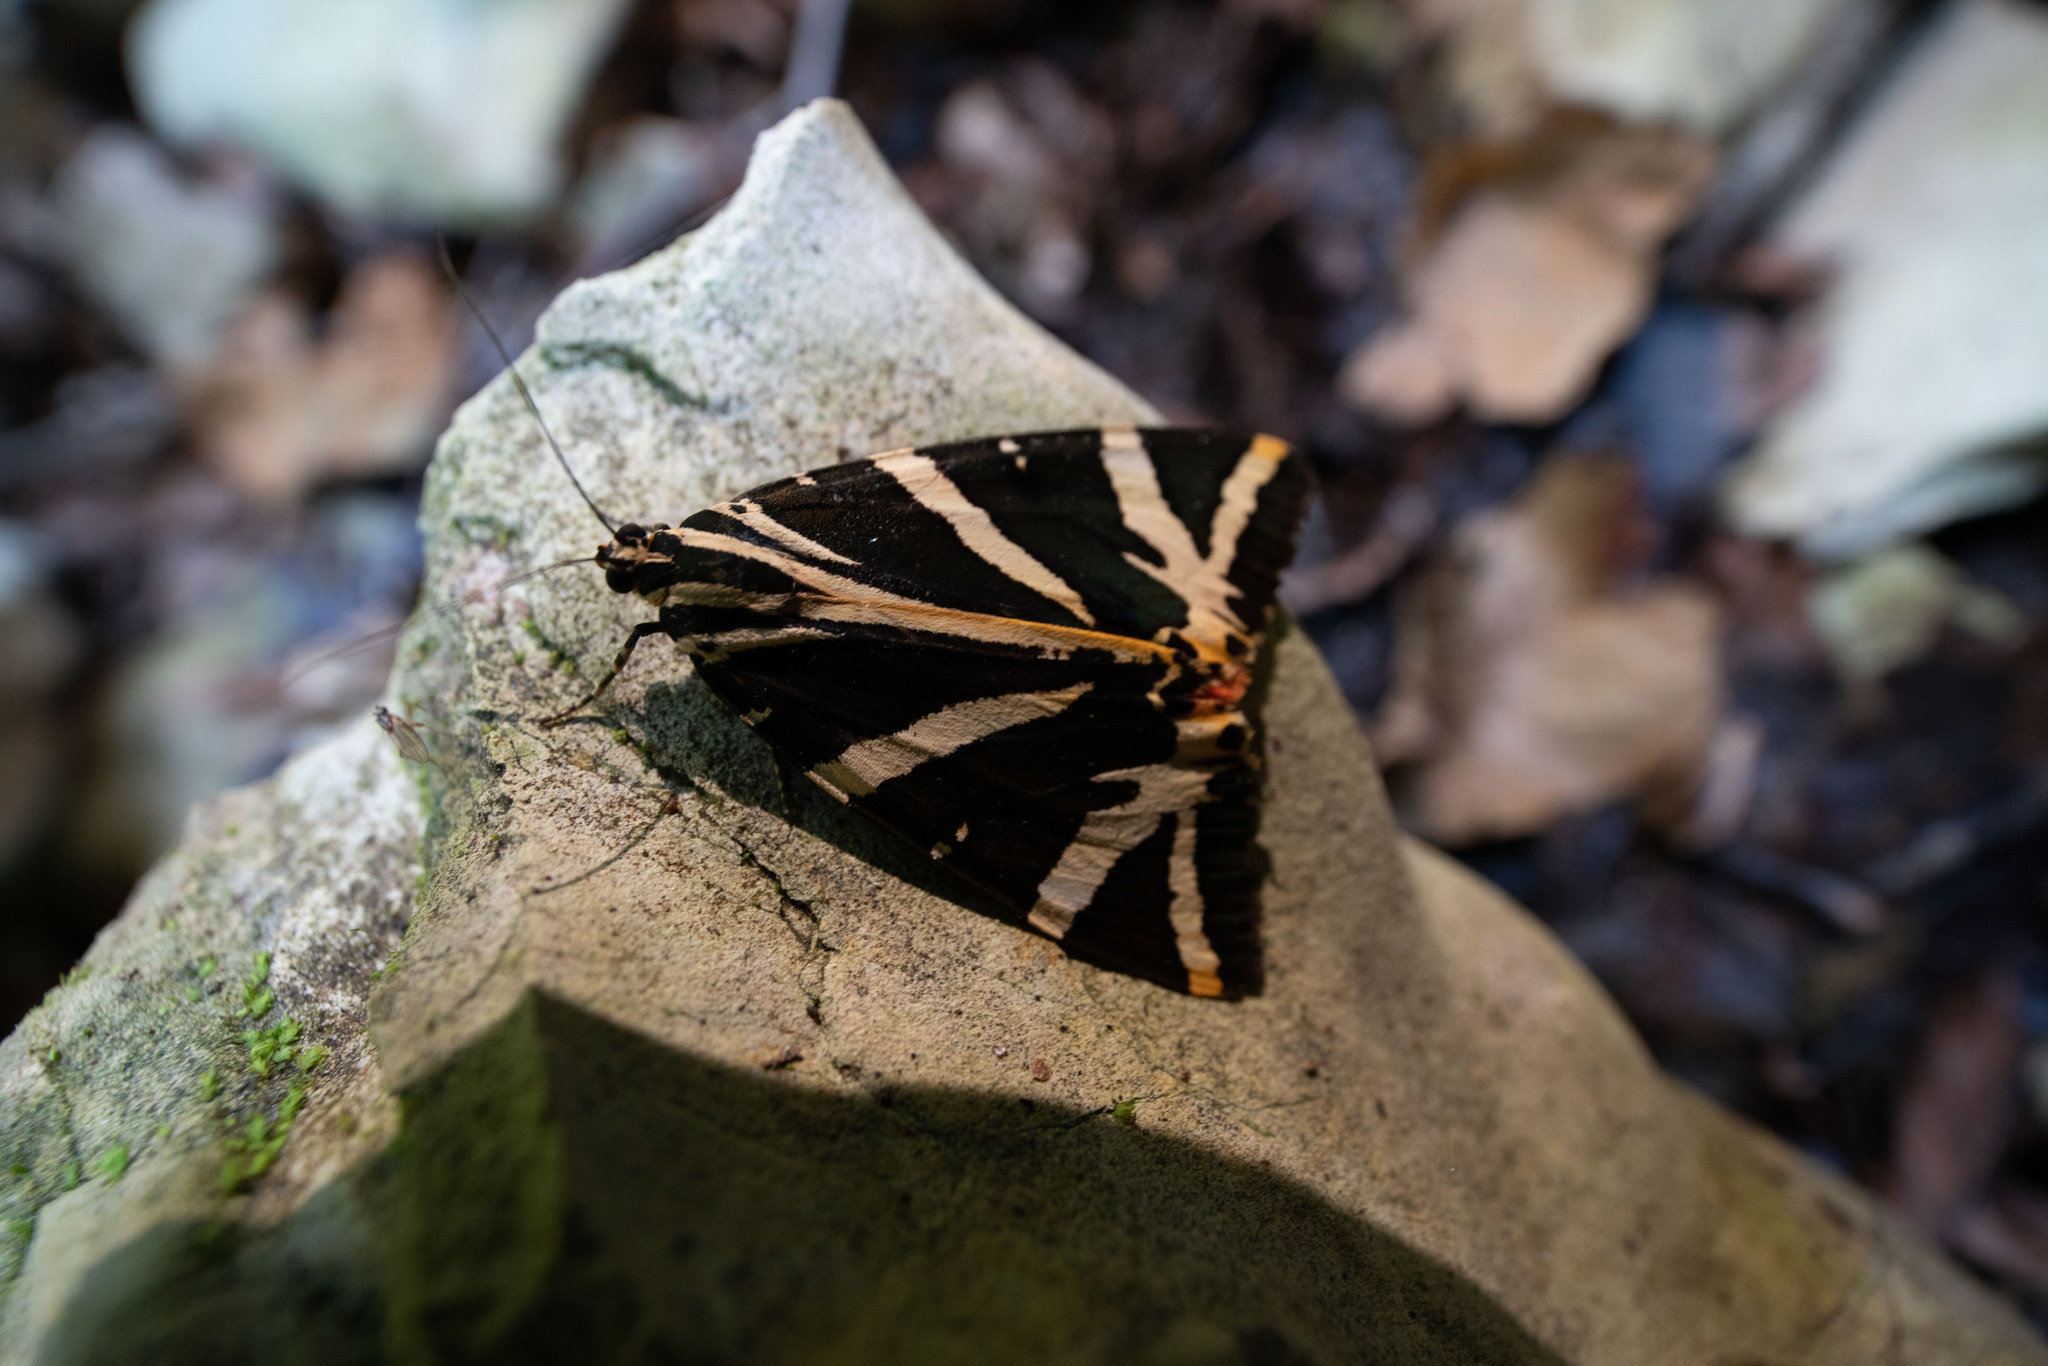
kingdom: Animalia
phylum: Arthropoda
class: Insecta
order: Lepidoptera
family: Erebidae
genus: Euplagia
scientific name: Euplagia quadripunctaria
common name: Jersey tiger
